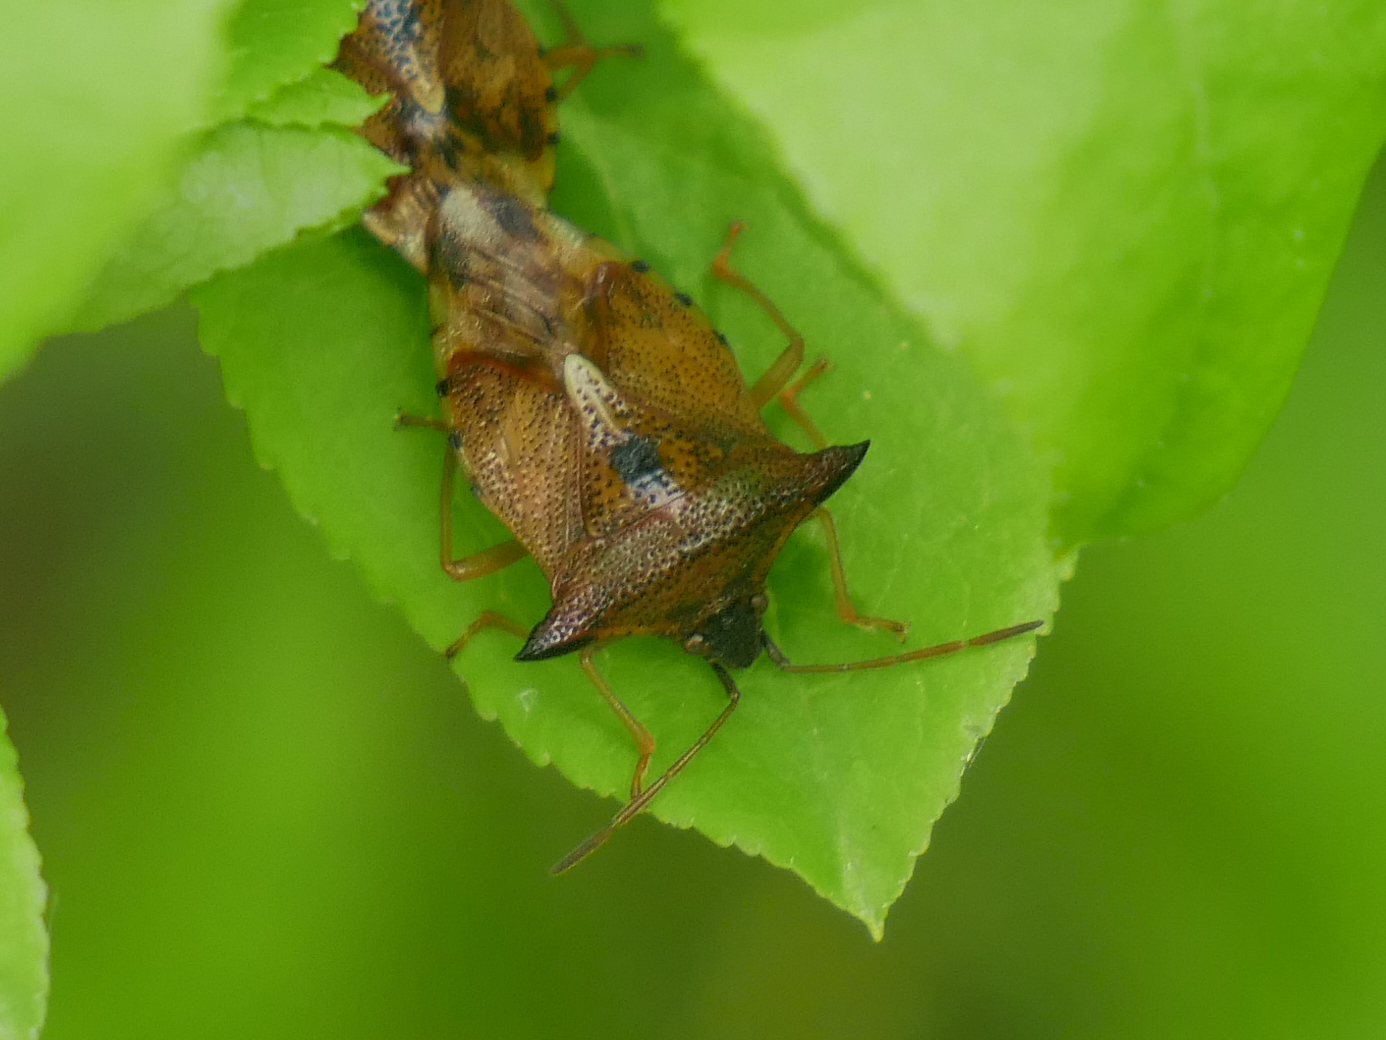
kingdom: Animalia
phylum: Arthropoda
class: Insecta
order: Hemiptera
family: Acanthosomatidae
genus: Elasmucha
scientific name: Elasmucha ferrugata
